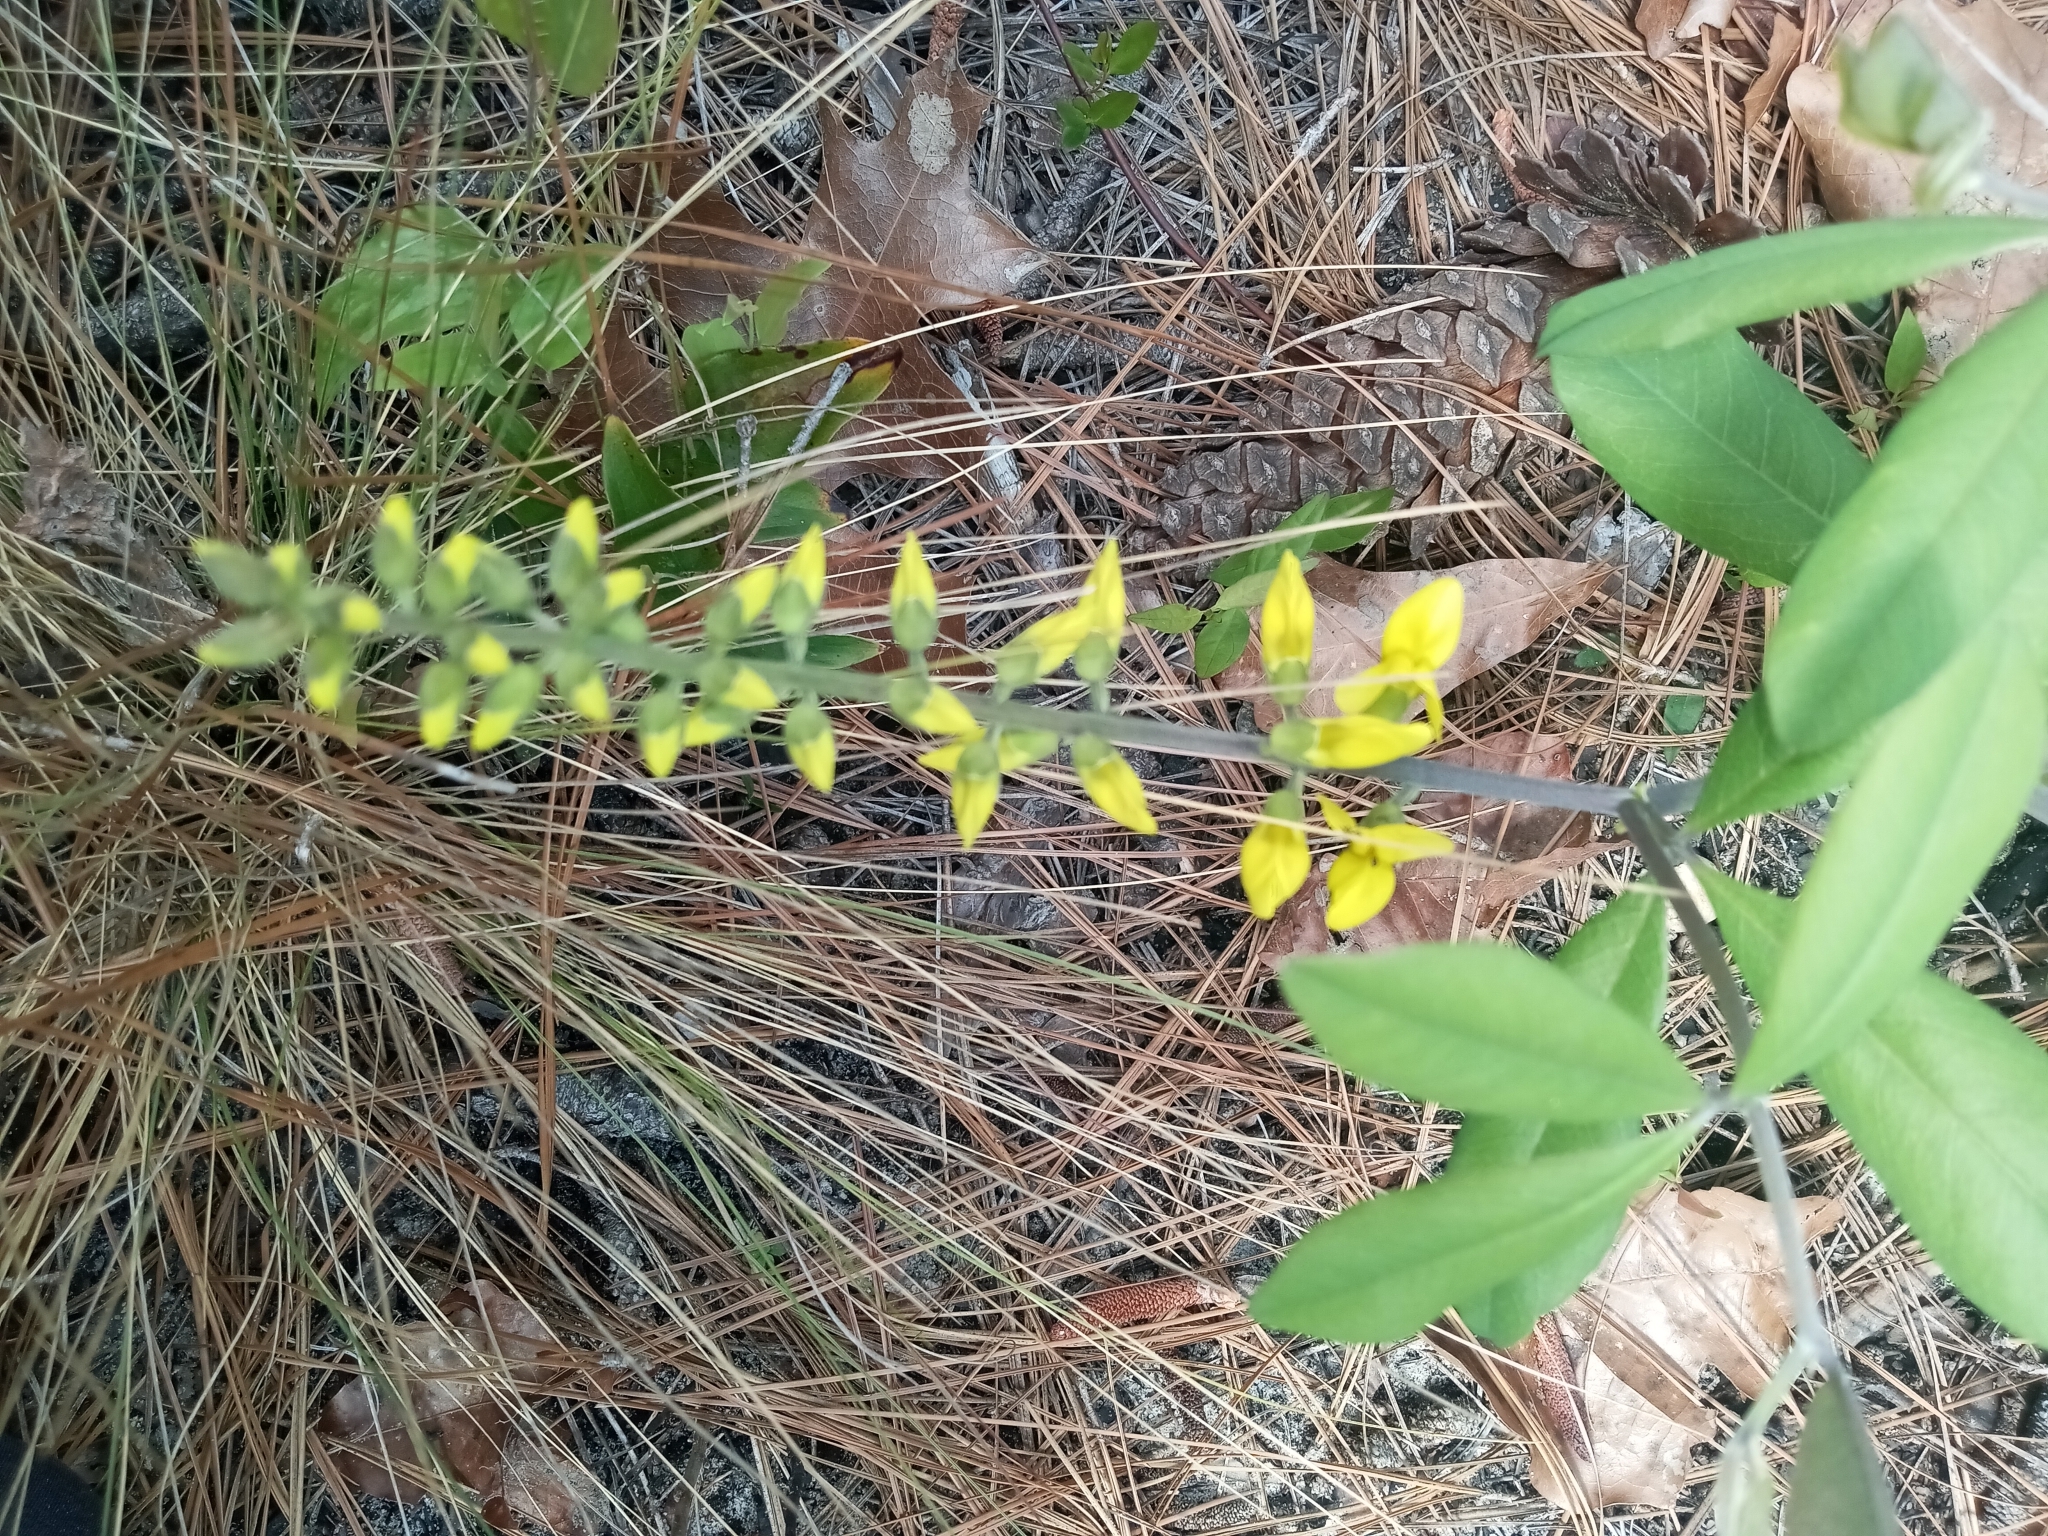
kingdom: Plantae
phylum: Tracheophyta
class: Magnoliopsida
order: Fabales
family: Fabaceae
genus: Baptisia
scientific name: Baptisia cinerea
